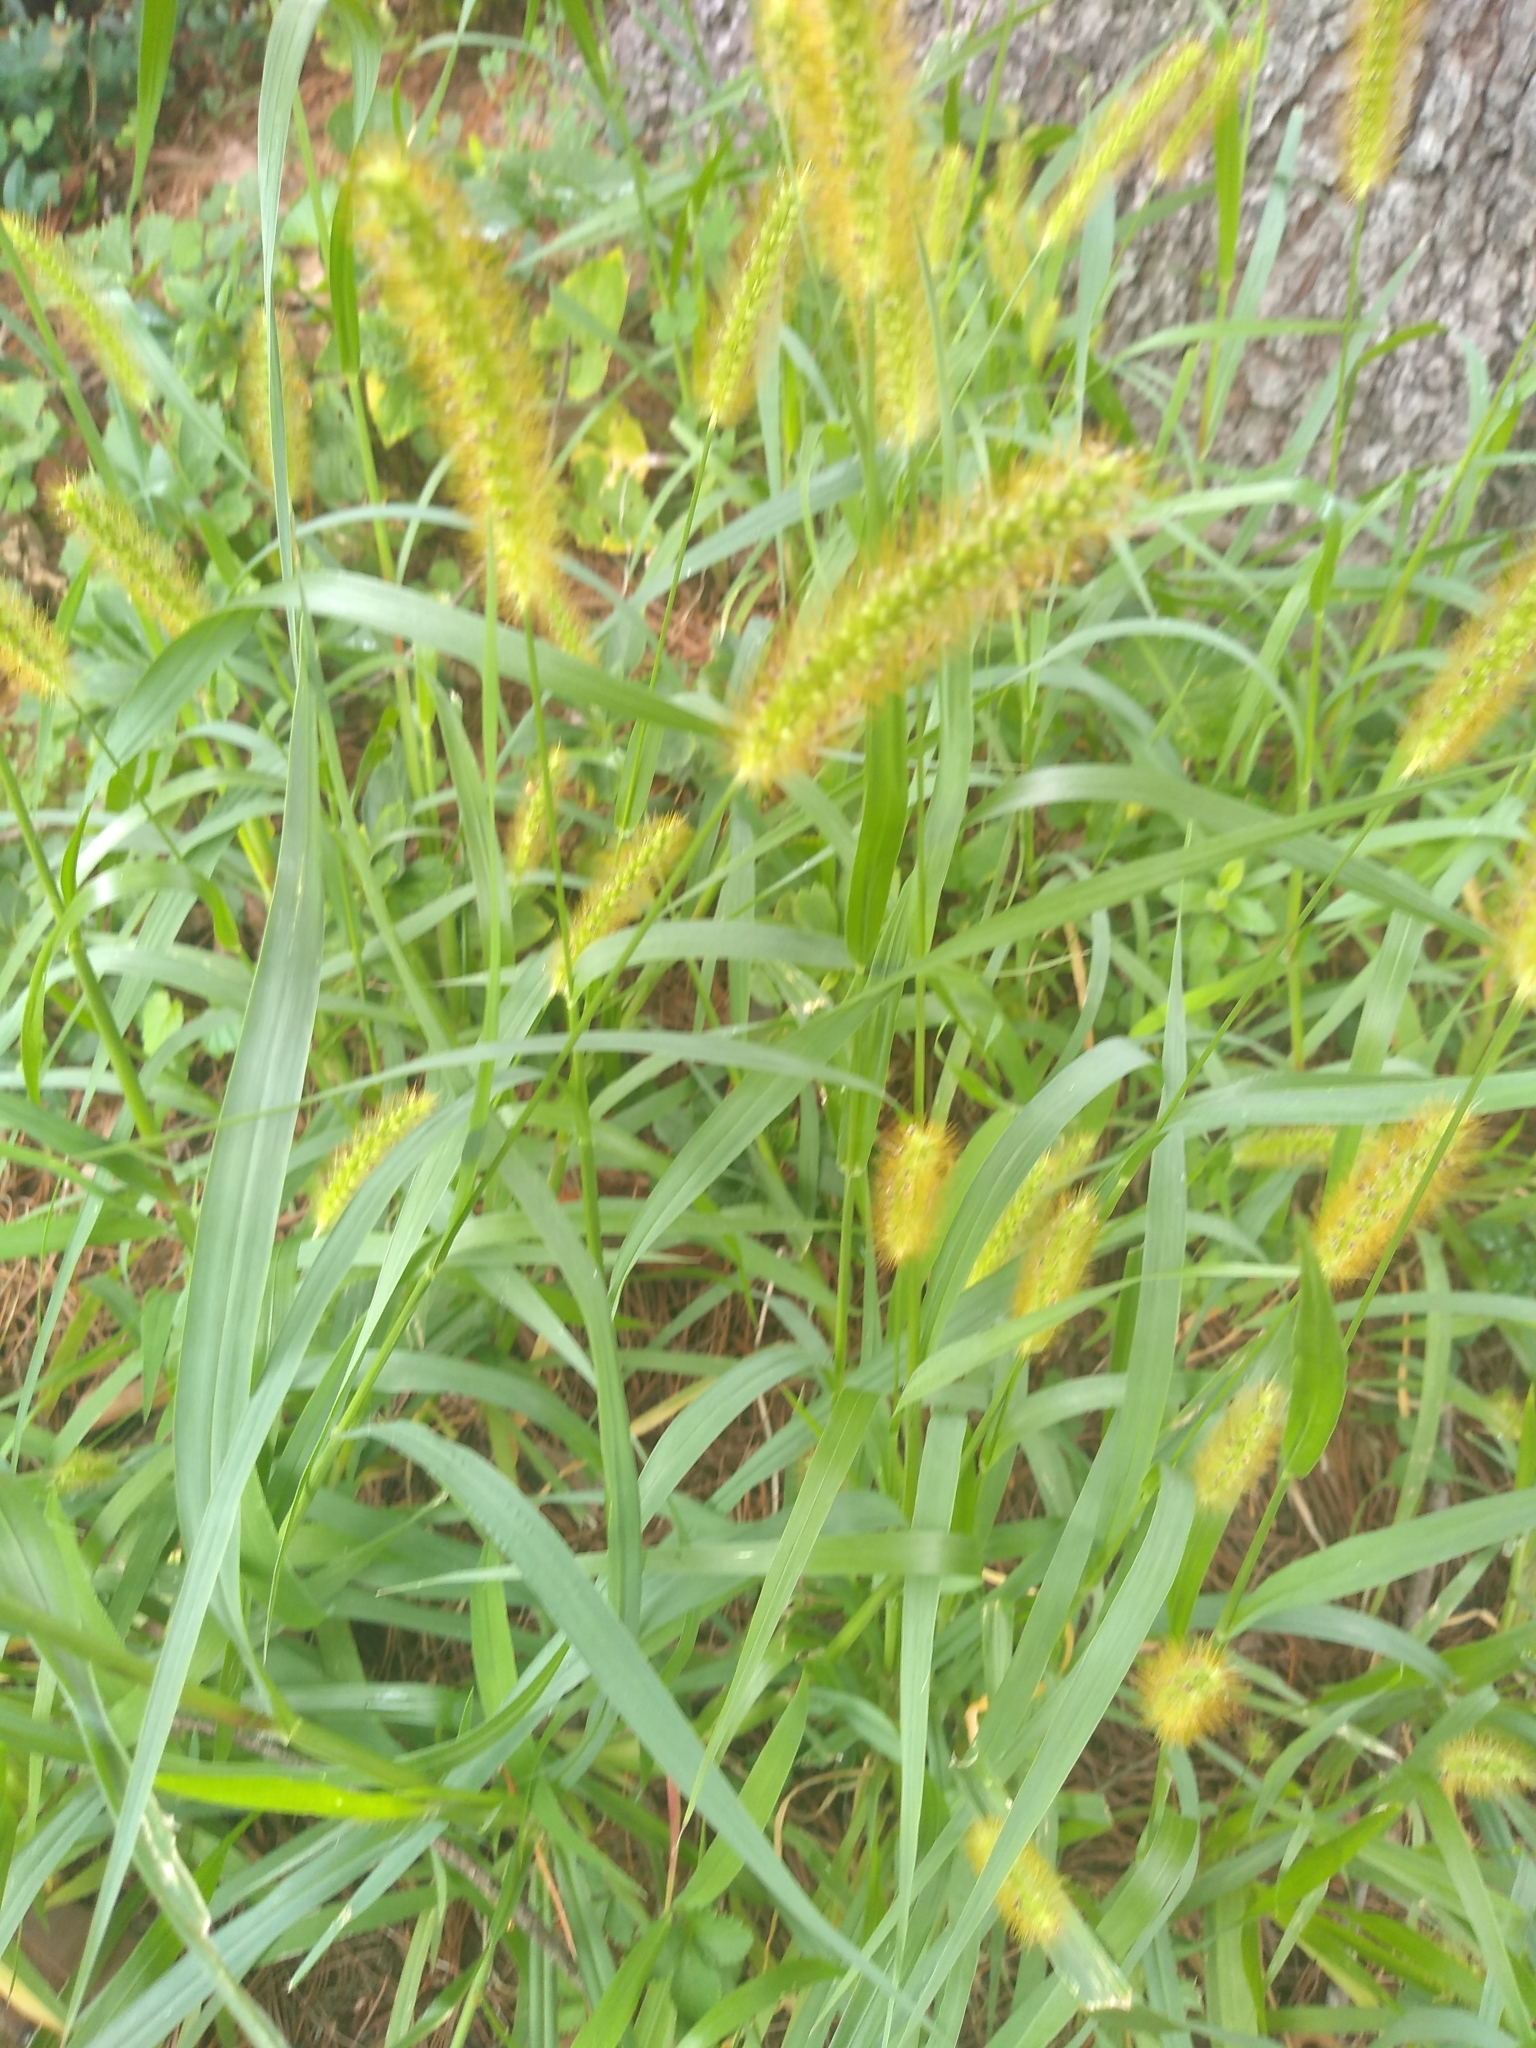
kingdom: Plantae
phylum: Tracheophyta
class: Liliopsida
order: Poales
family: Poaceae
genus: Setaria
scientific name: Setaria pumila
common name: Yellow bristle-grass
